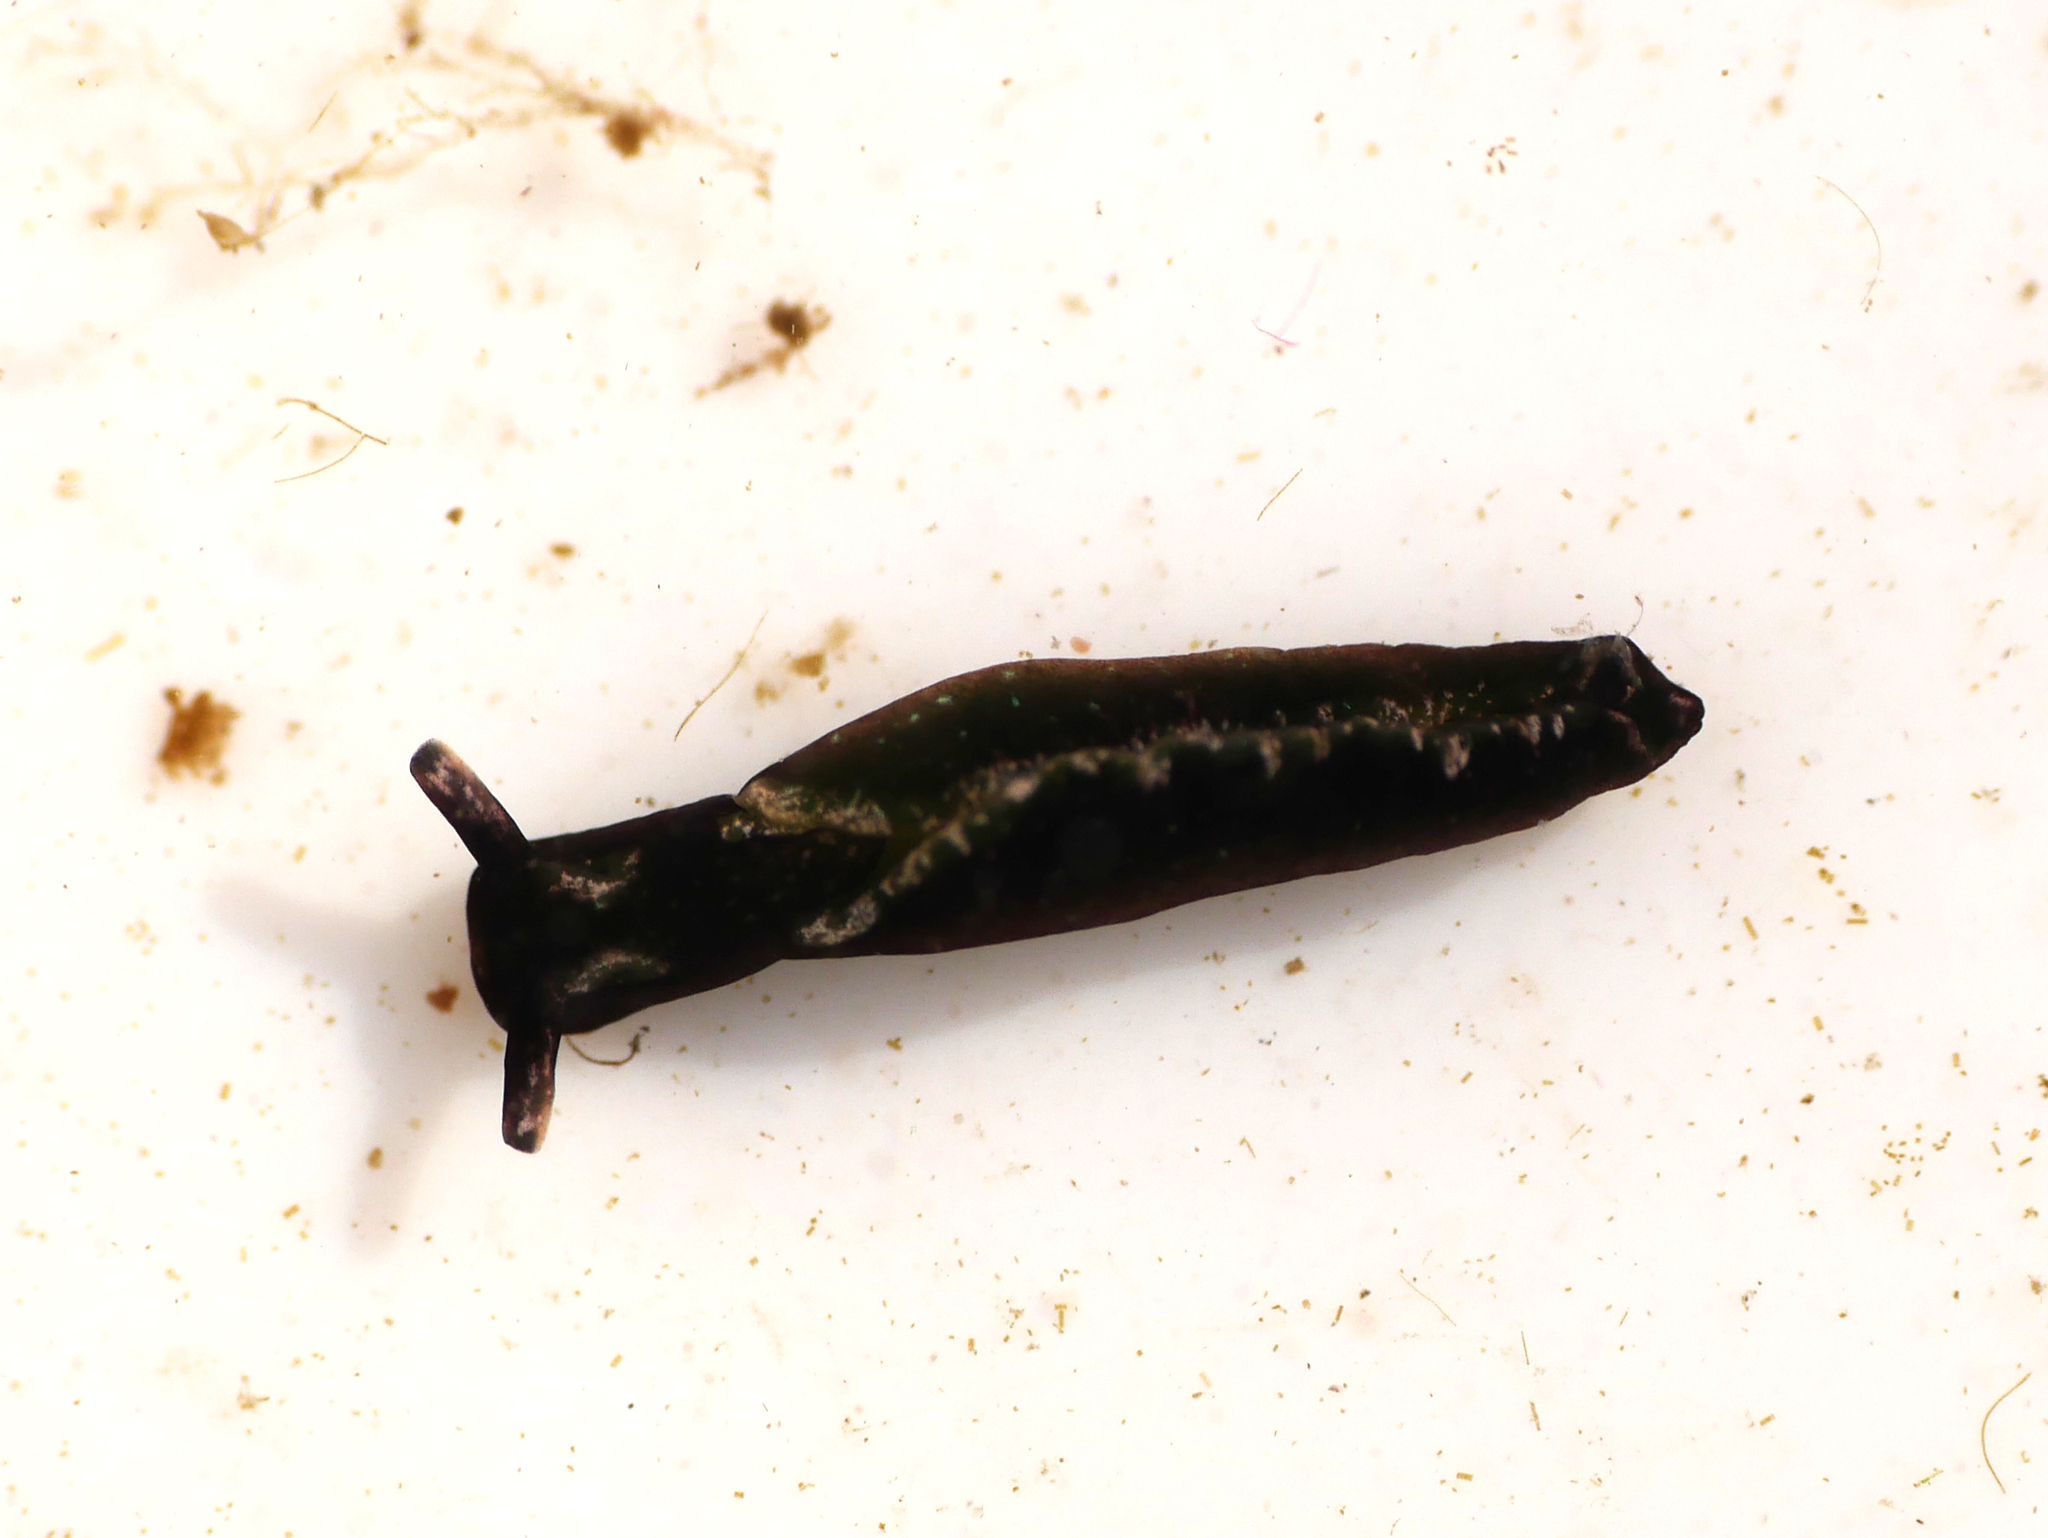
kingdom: Animalia
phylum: Mollusca
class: Gastropoda
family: Plakobranchidae
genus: Elysia
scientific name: Elysia viridis
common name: Green elysia
